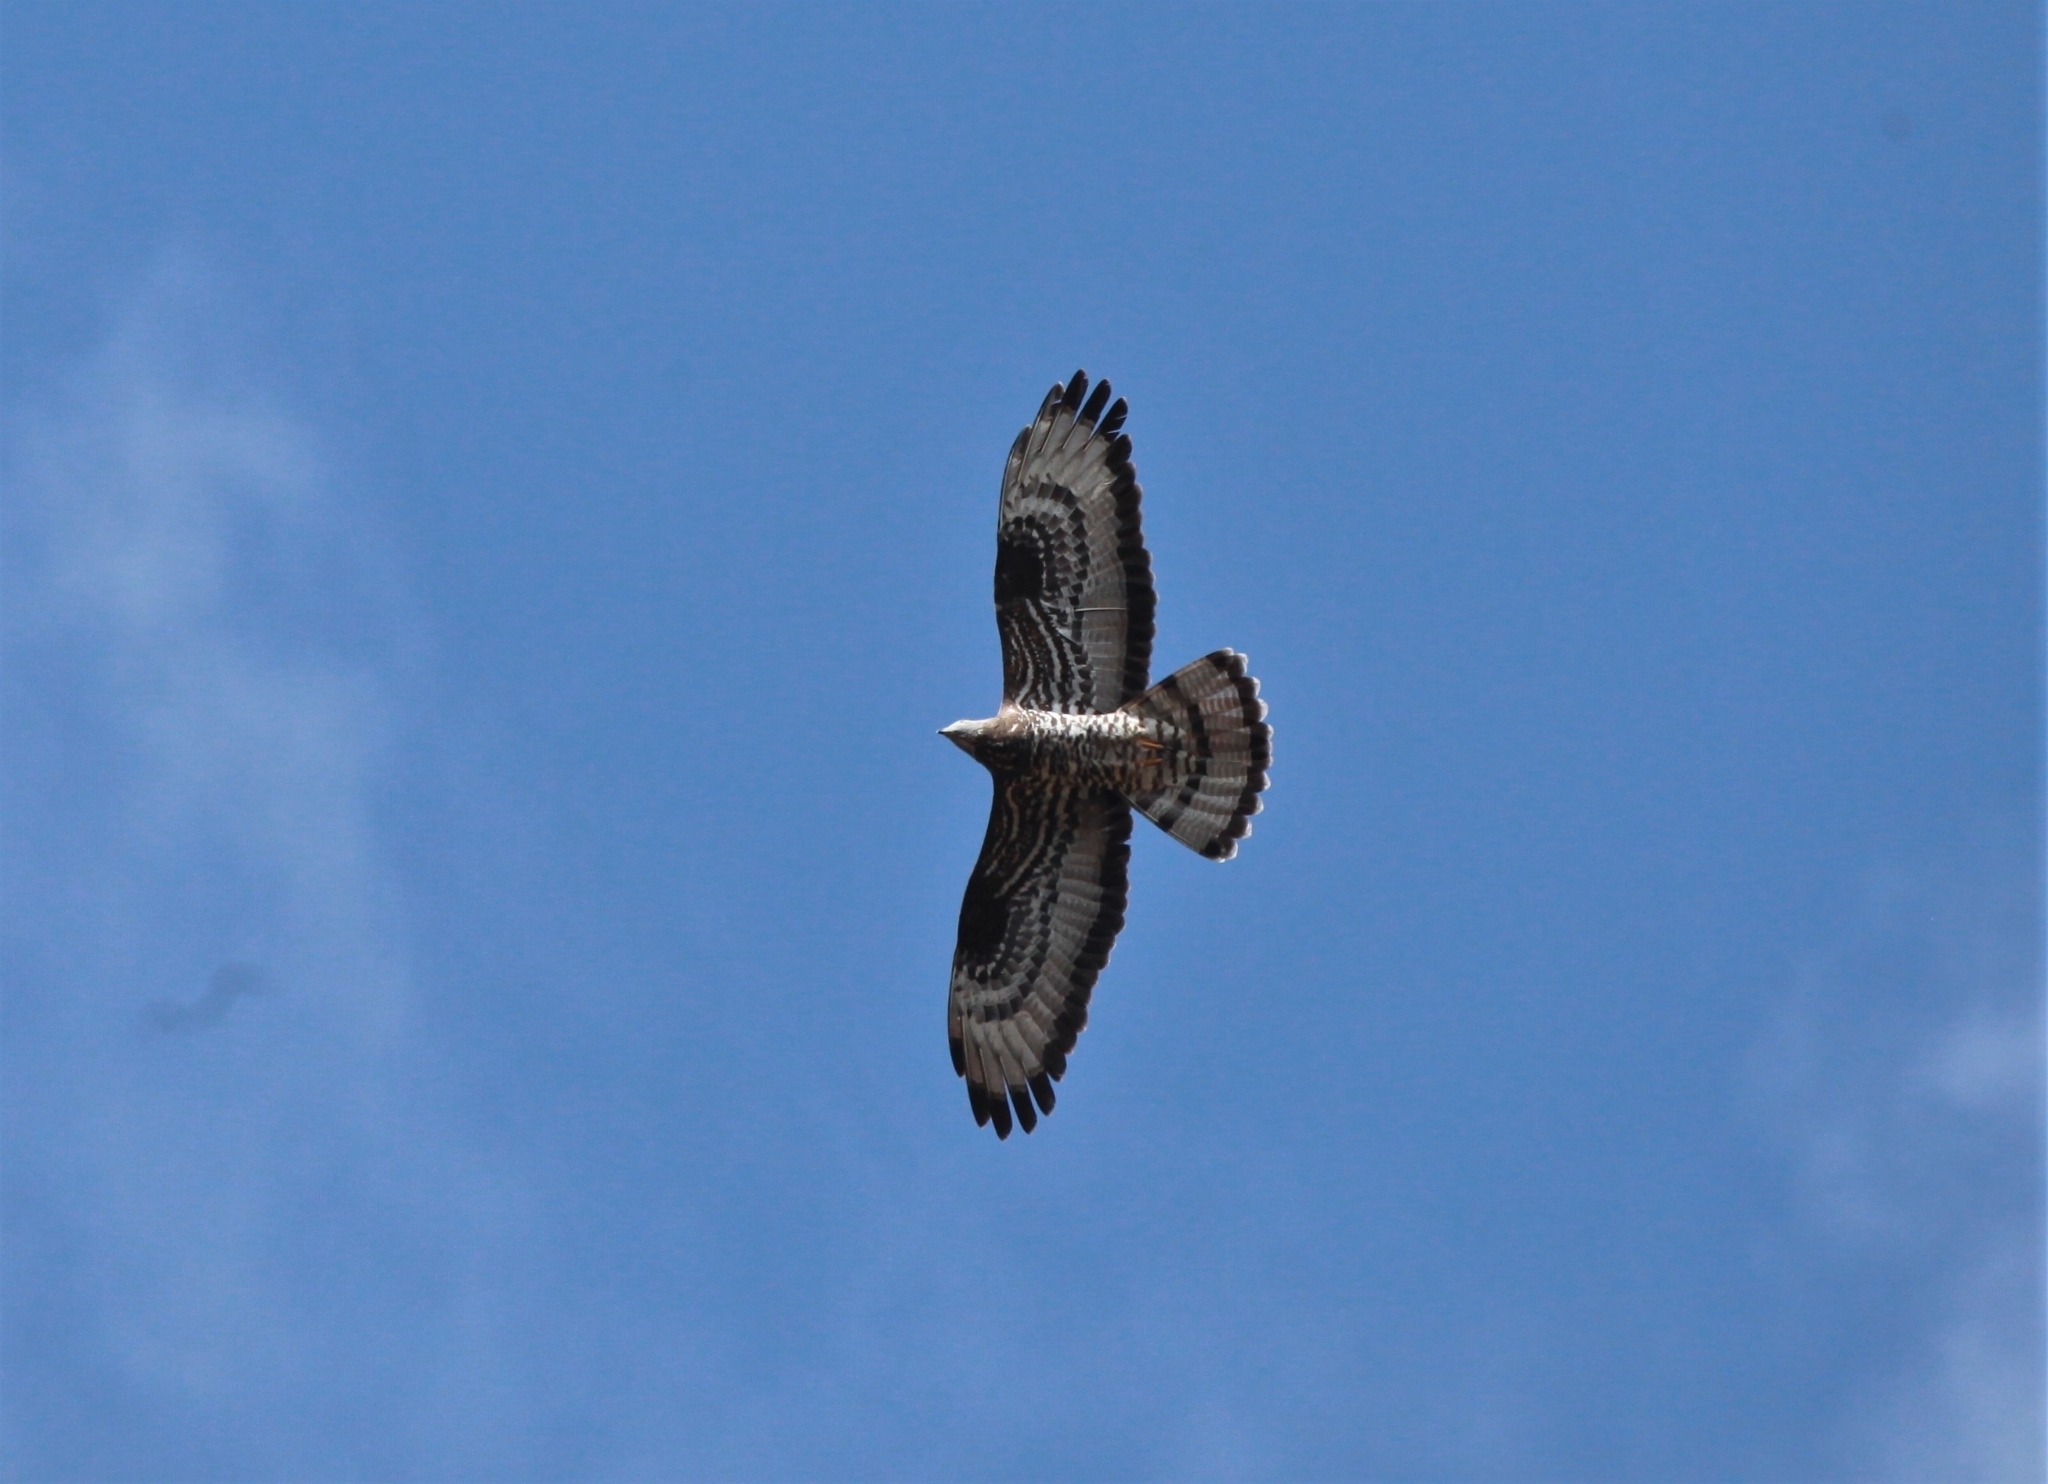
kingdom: Animalia
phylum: Chordata
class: Aves
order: Accipitriformes
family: Accipitridae
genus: Pernis
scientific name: Pernis apivorus
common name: European honey buzzard
